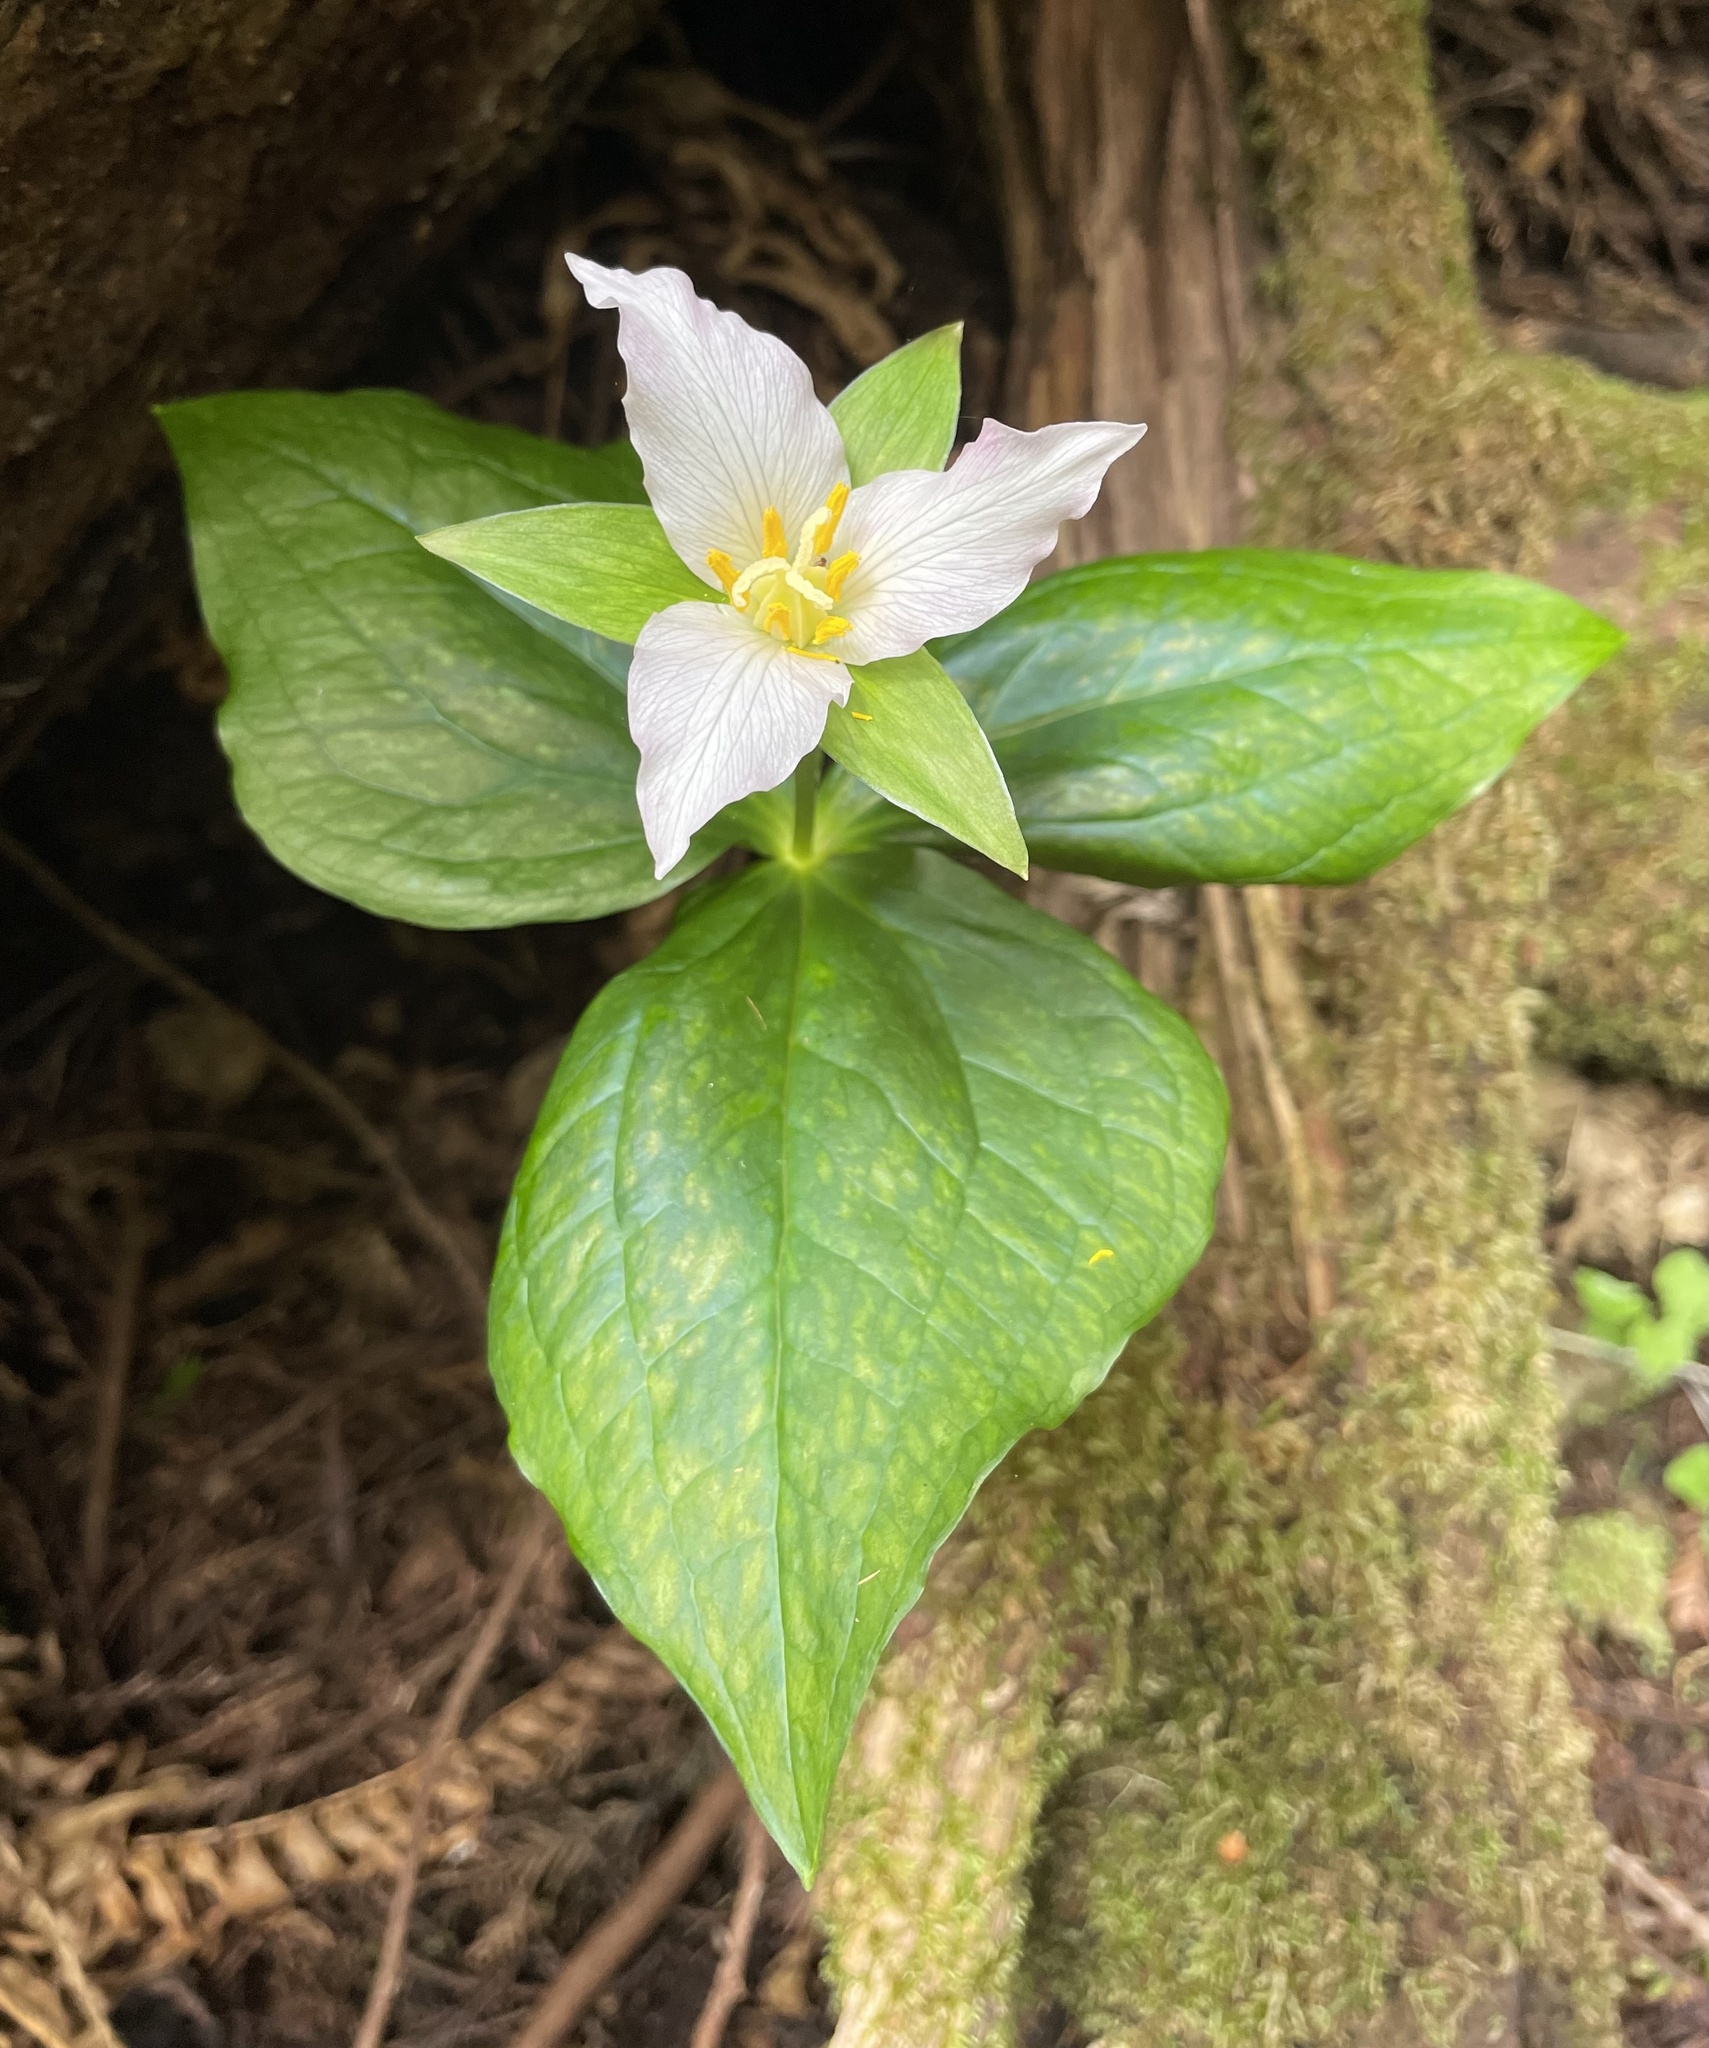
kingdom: Plantae
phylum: Tracheophyta
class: Liliopsida
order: Liliales
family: Melanthiaceae
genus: Trillium
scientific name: Trillium ovatum
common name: Pacific trillium
